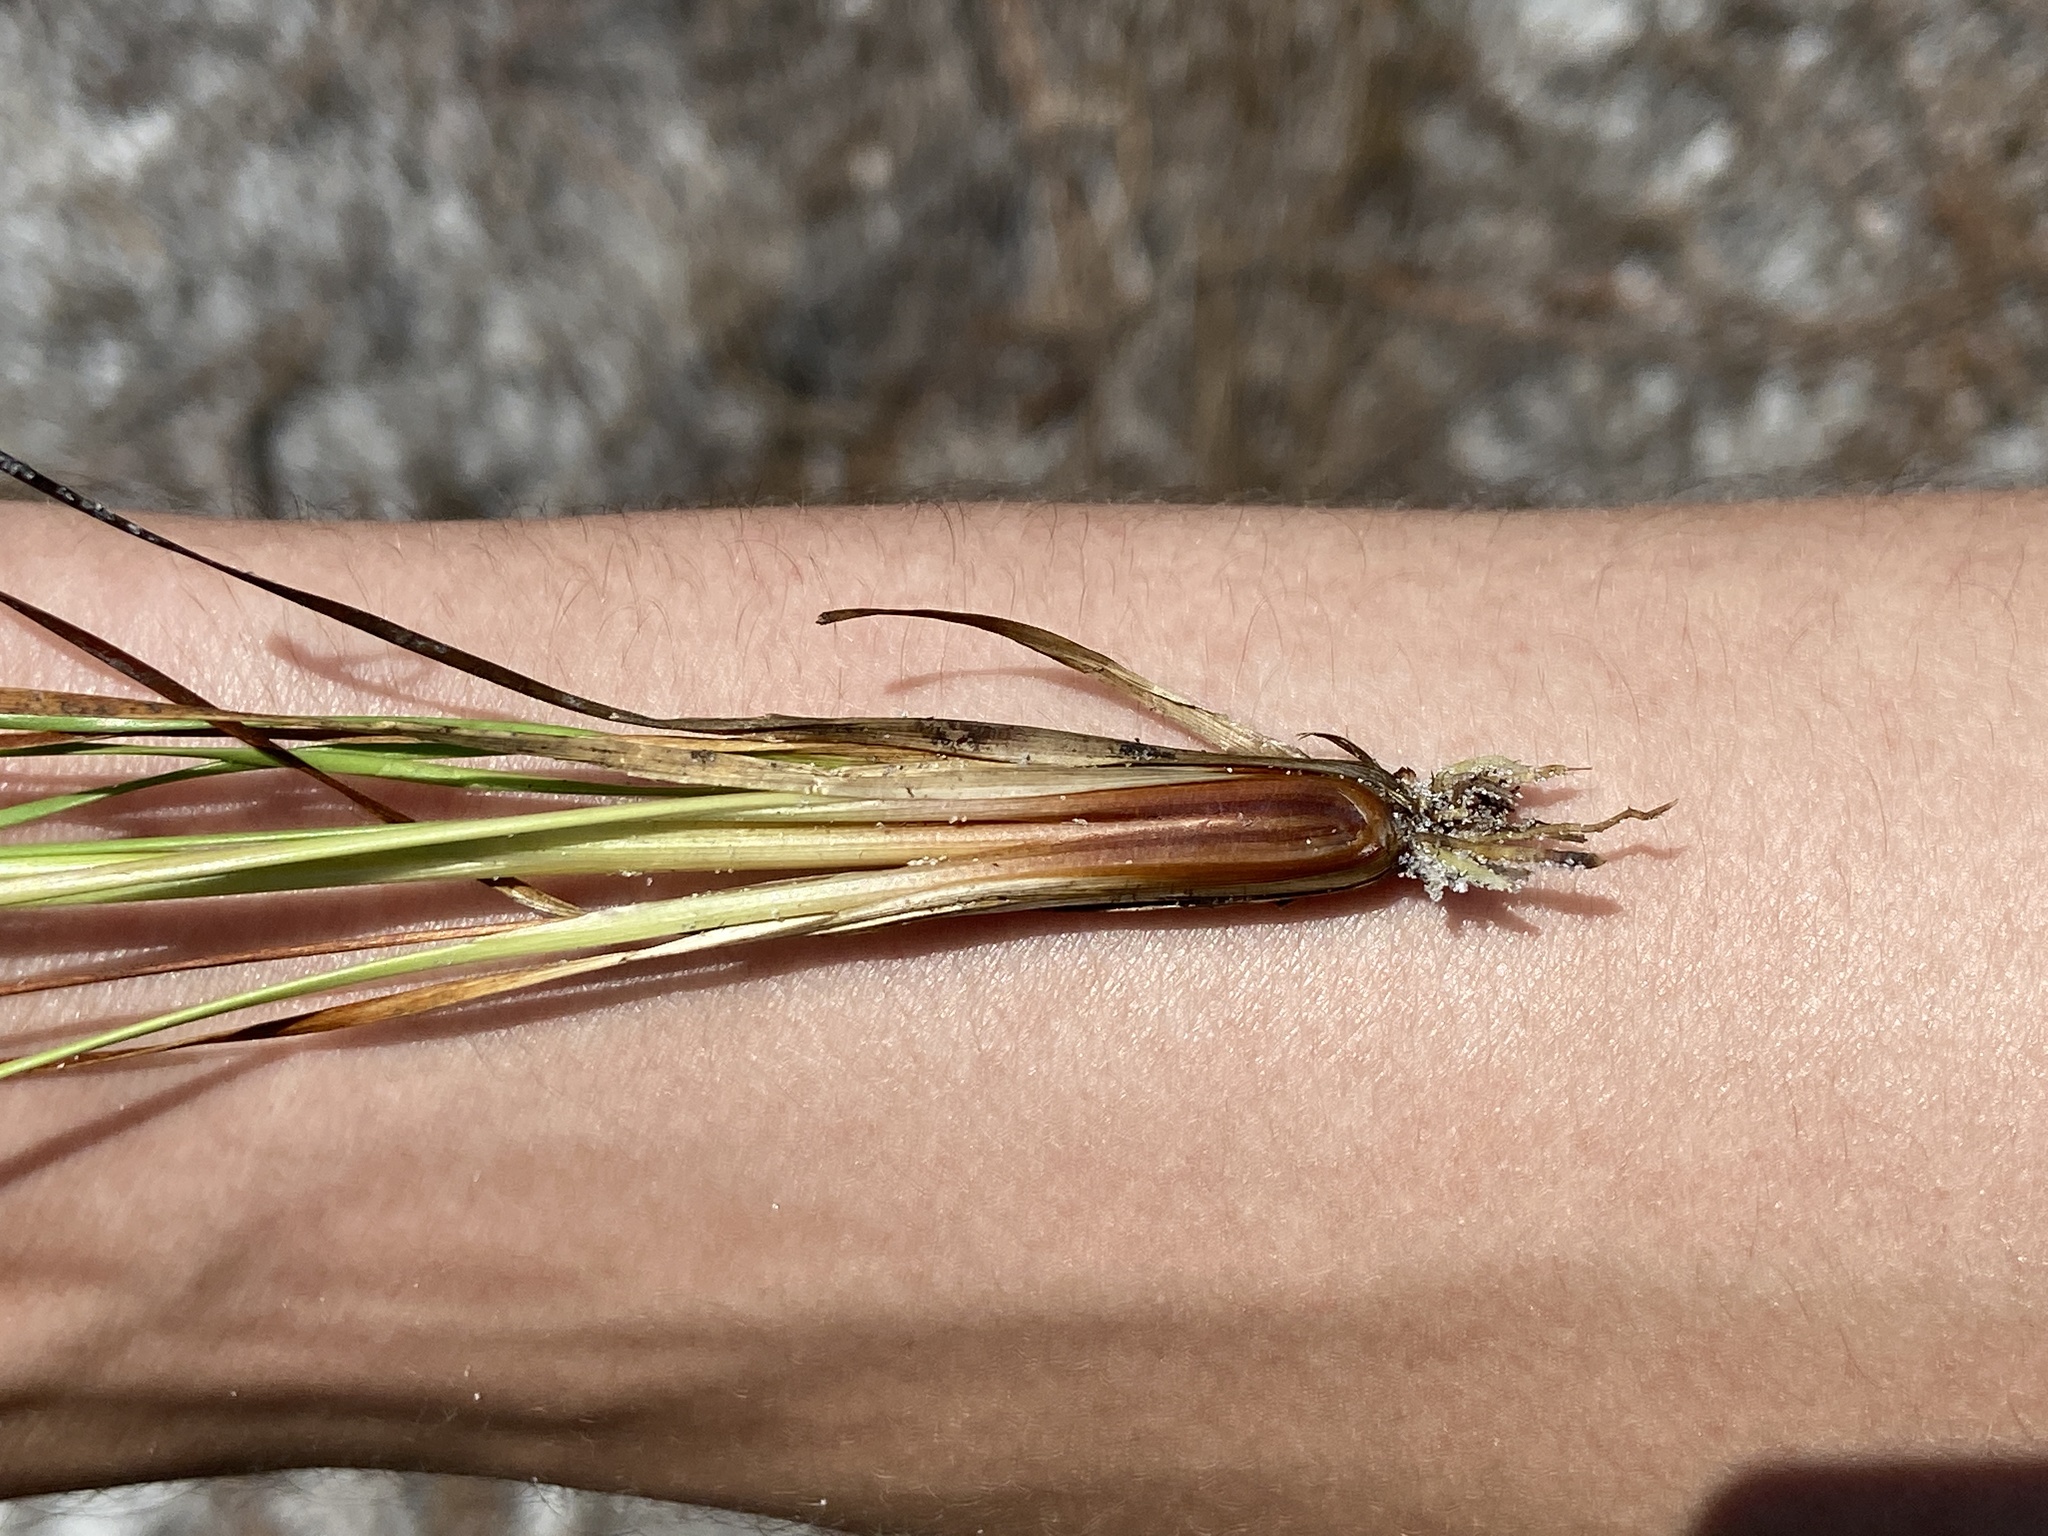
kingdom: Plantae
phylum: Tracheophyta
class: Liliopsida
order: Poales
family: Xyridaceae
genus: Xyris
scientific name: Xyris stenotera
